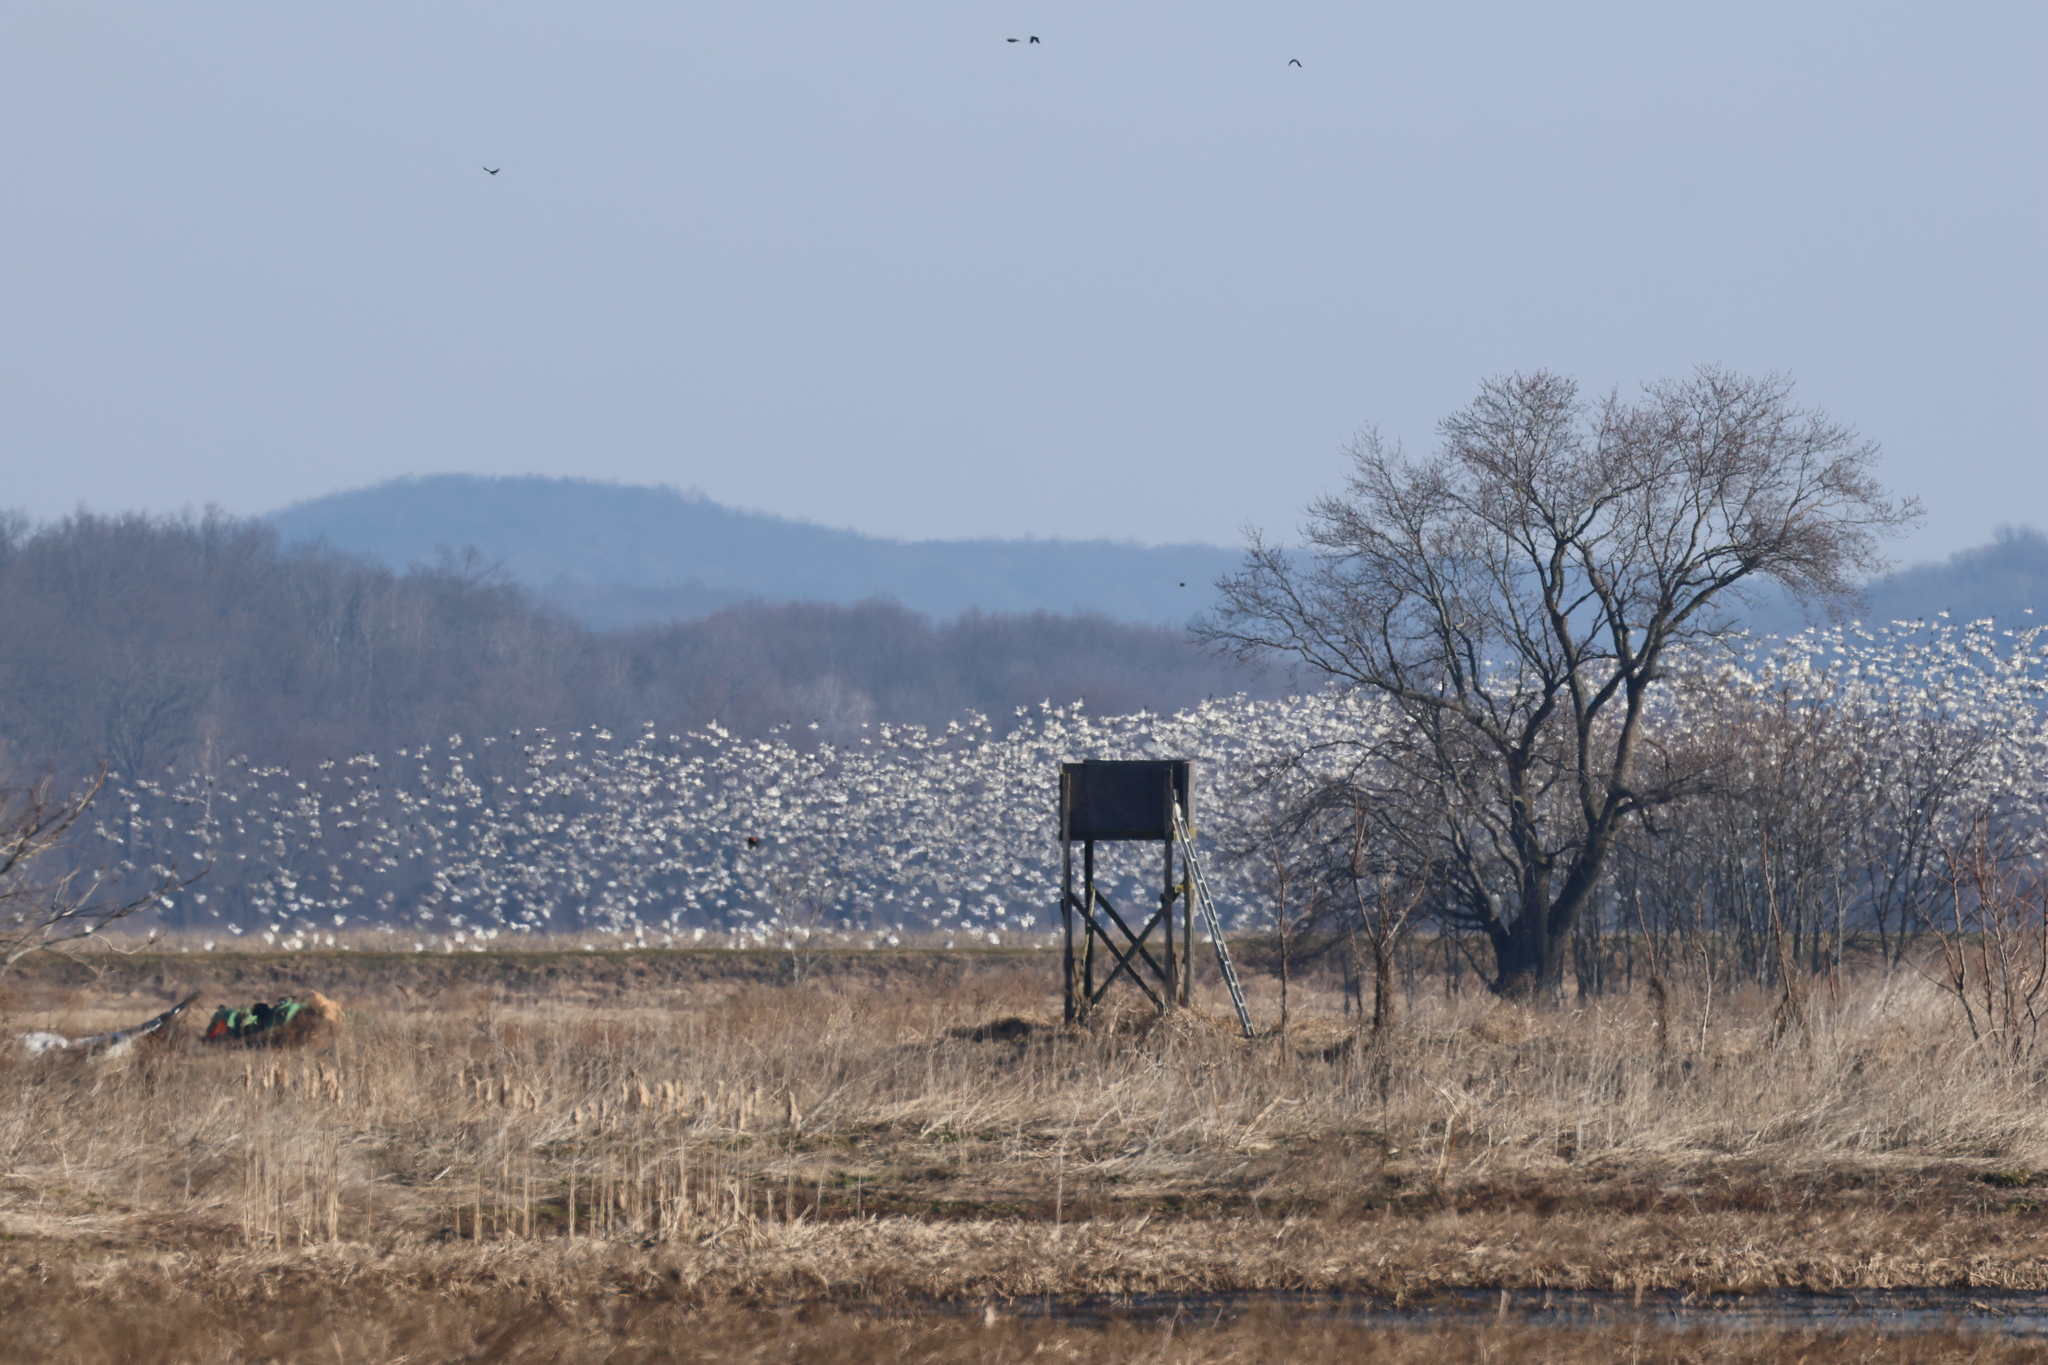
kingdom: Animalia
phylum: Chordata
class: Aves
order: Anseriformes
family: Anatidae
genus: Anser
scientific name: Anser caerulescens
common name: Snow goose
